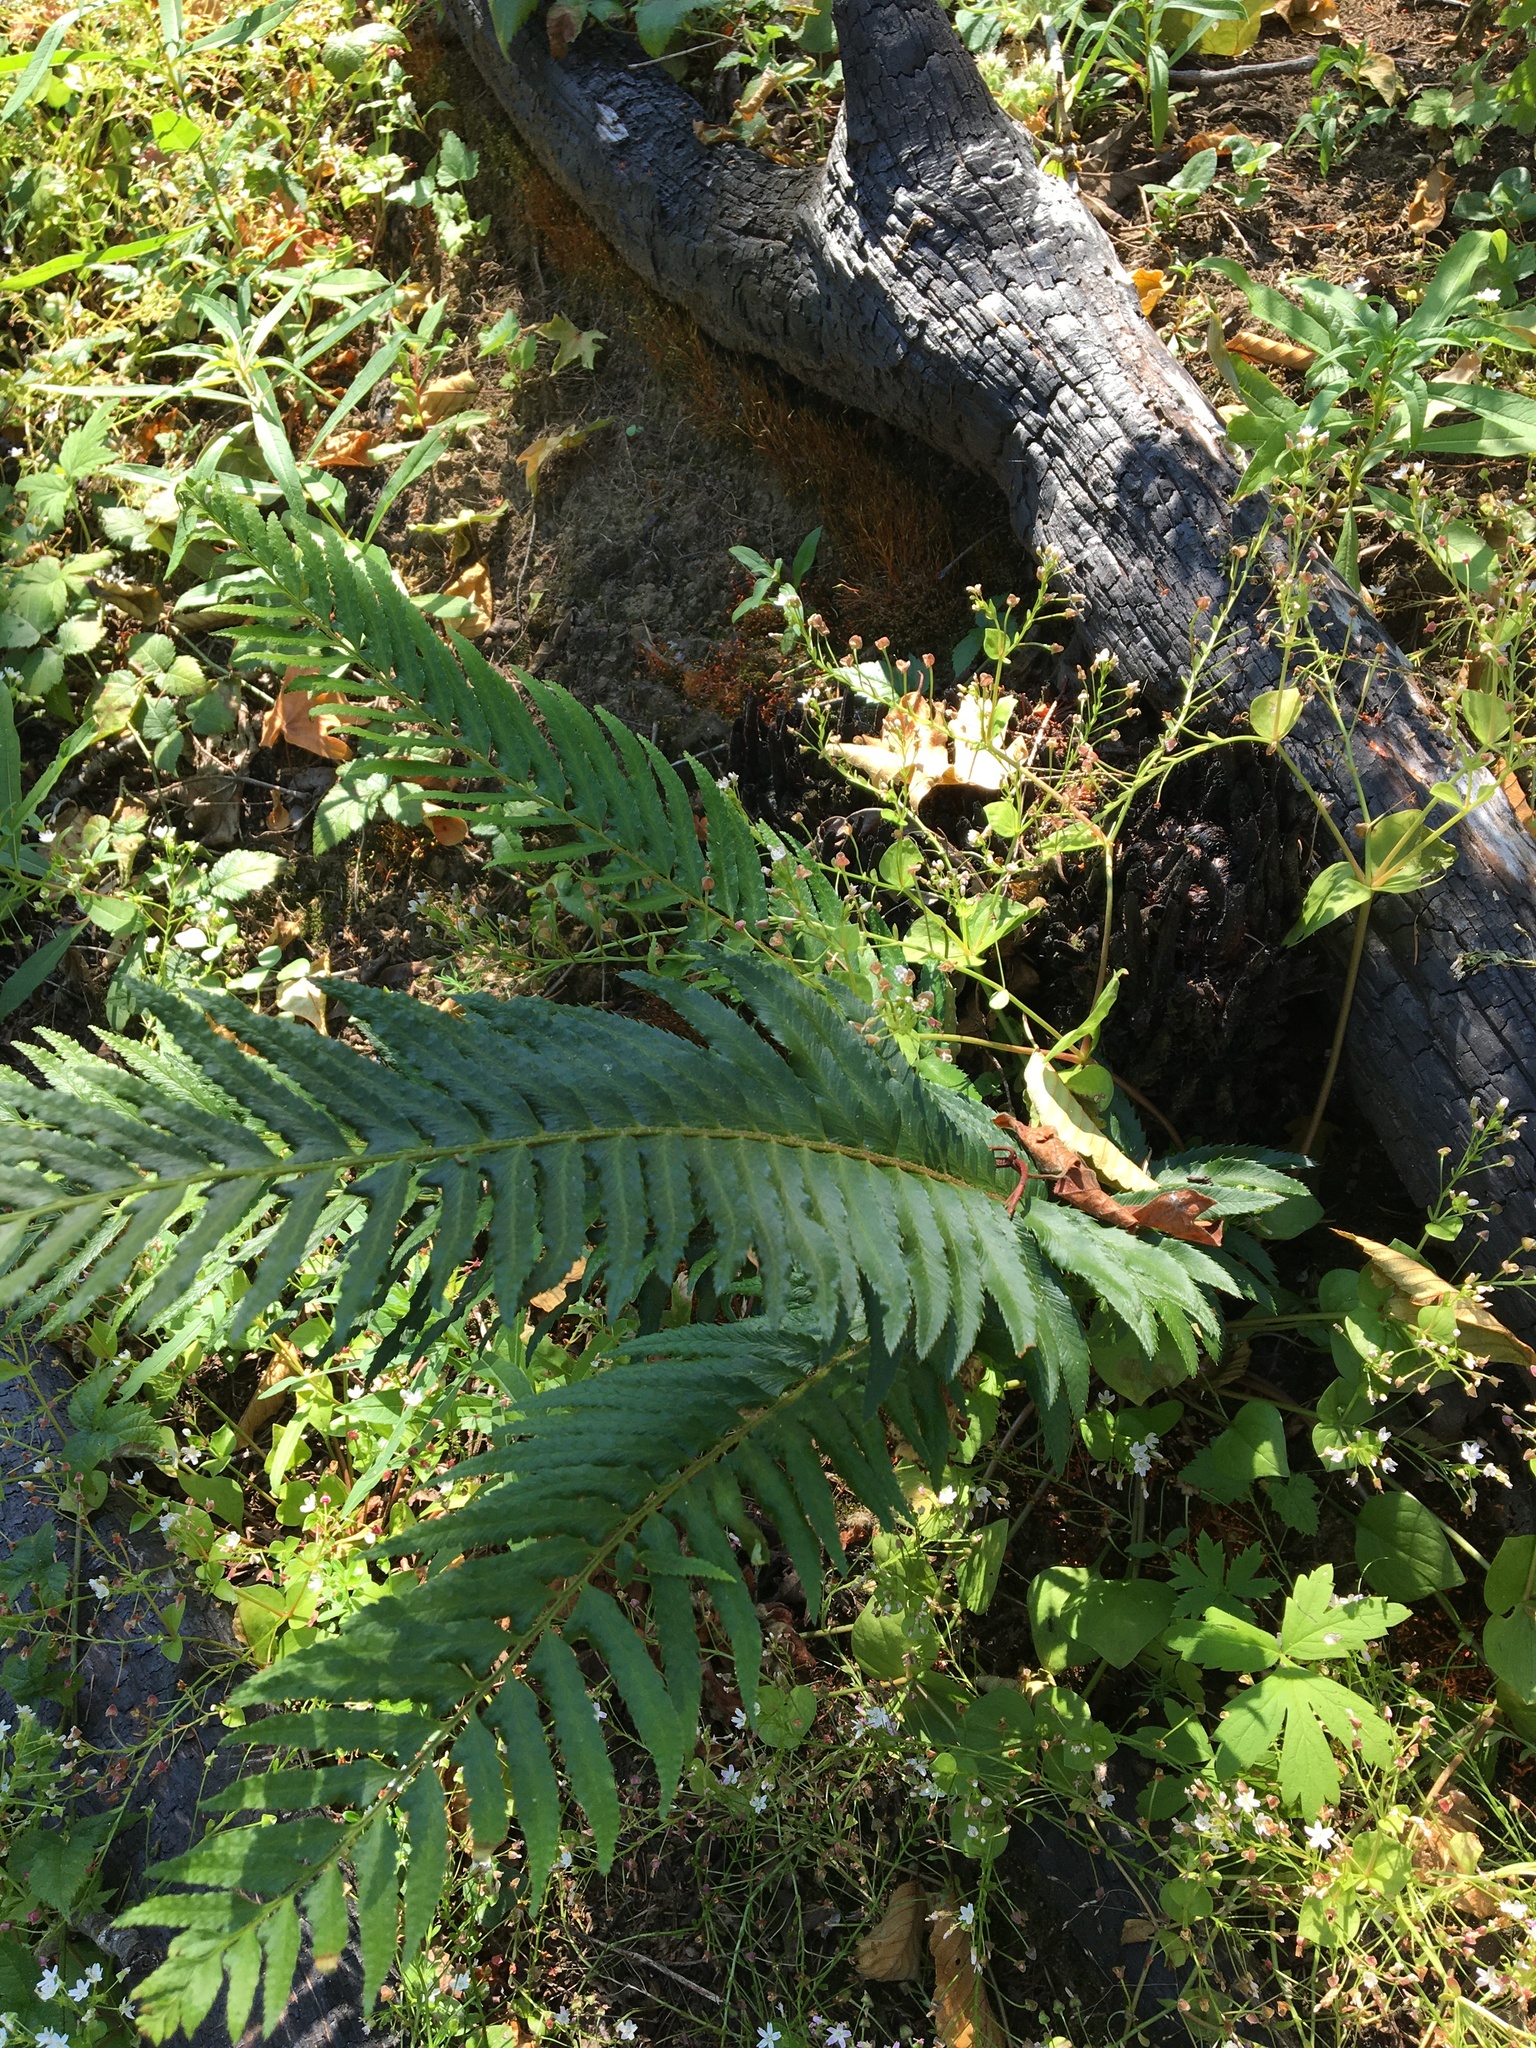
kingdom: Plantae
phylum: Tracheophyta
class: Polypodiopsida
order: Polypodiales
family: Dryopteridaceae
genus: Polystichum
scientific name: Polystichum munitum
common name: Western sword-fern
